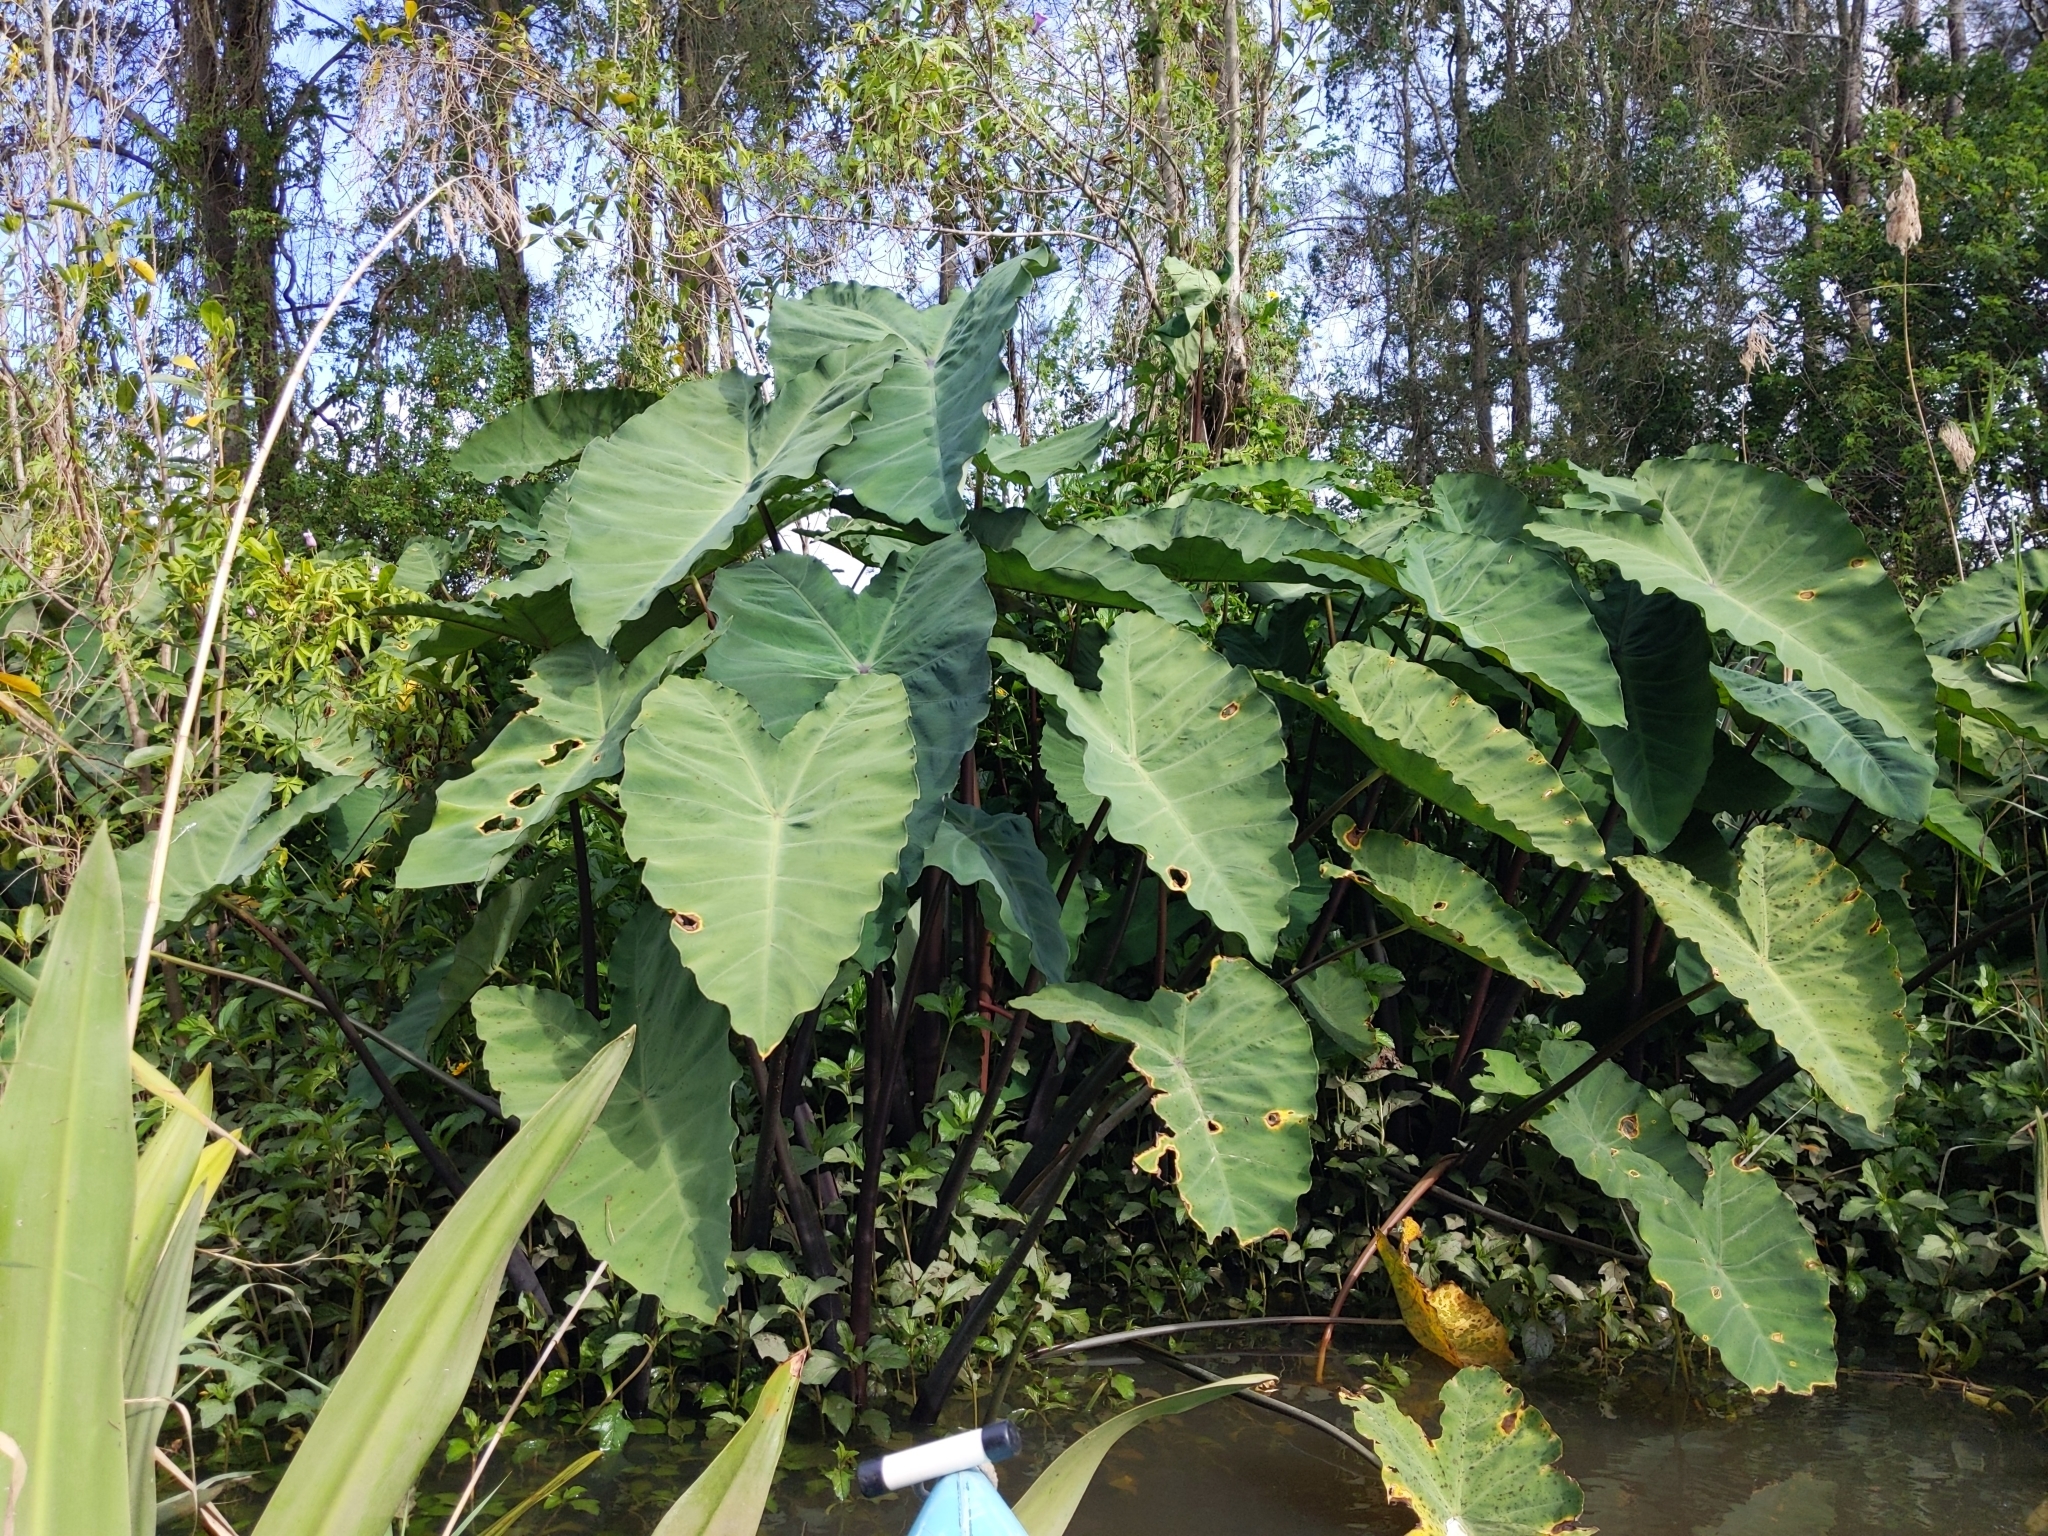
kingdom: Plantae
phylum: Tracheophyta
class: Liliopsida
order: Alismatales
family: Araceae
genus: Colocasia
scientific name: Colocasia esculenta
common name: Taro
